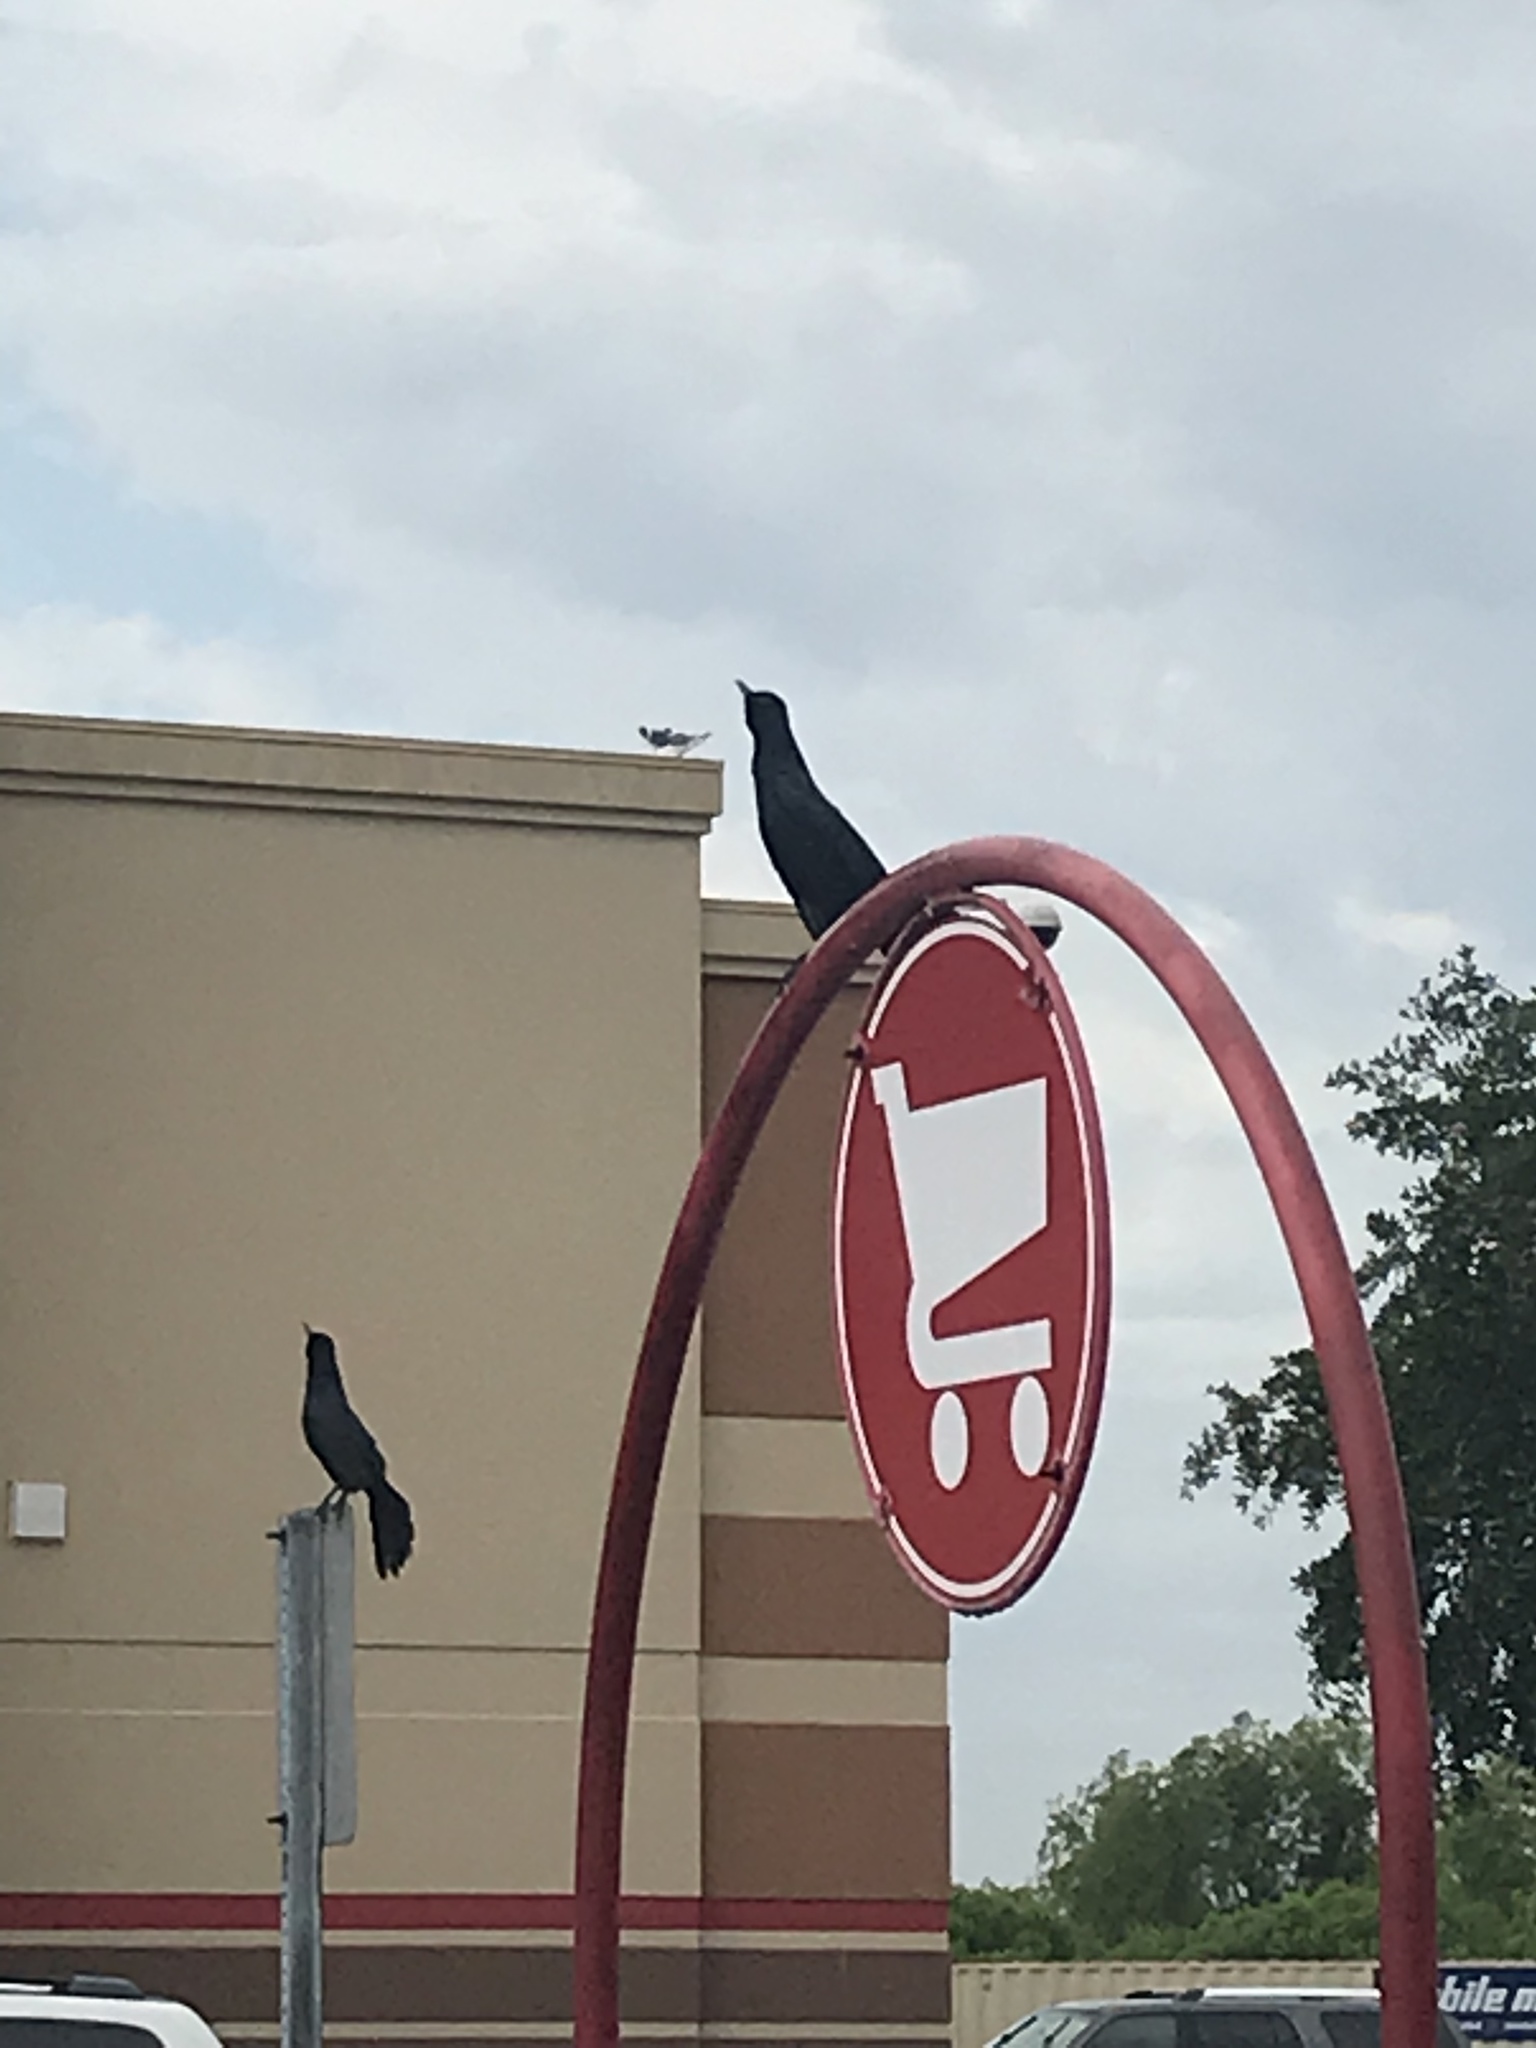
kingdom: Animalia
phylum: Chordata
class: Aves
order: Passeriformes
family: Icteridae
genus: Quiscalus
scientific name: Quiscalus major
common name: Boat-tailed grackle
